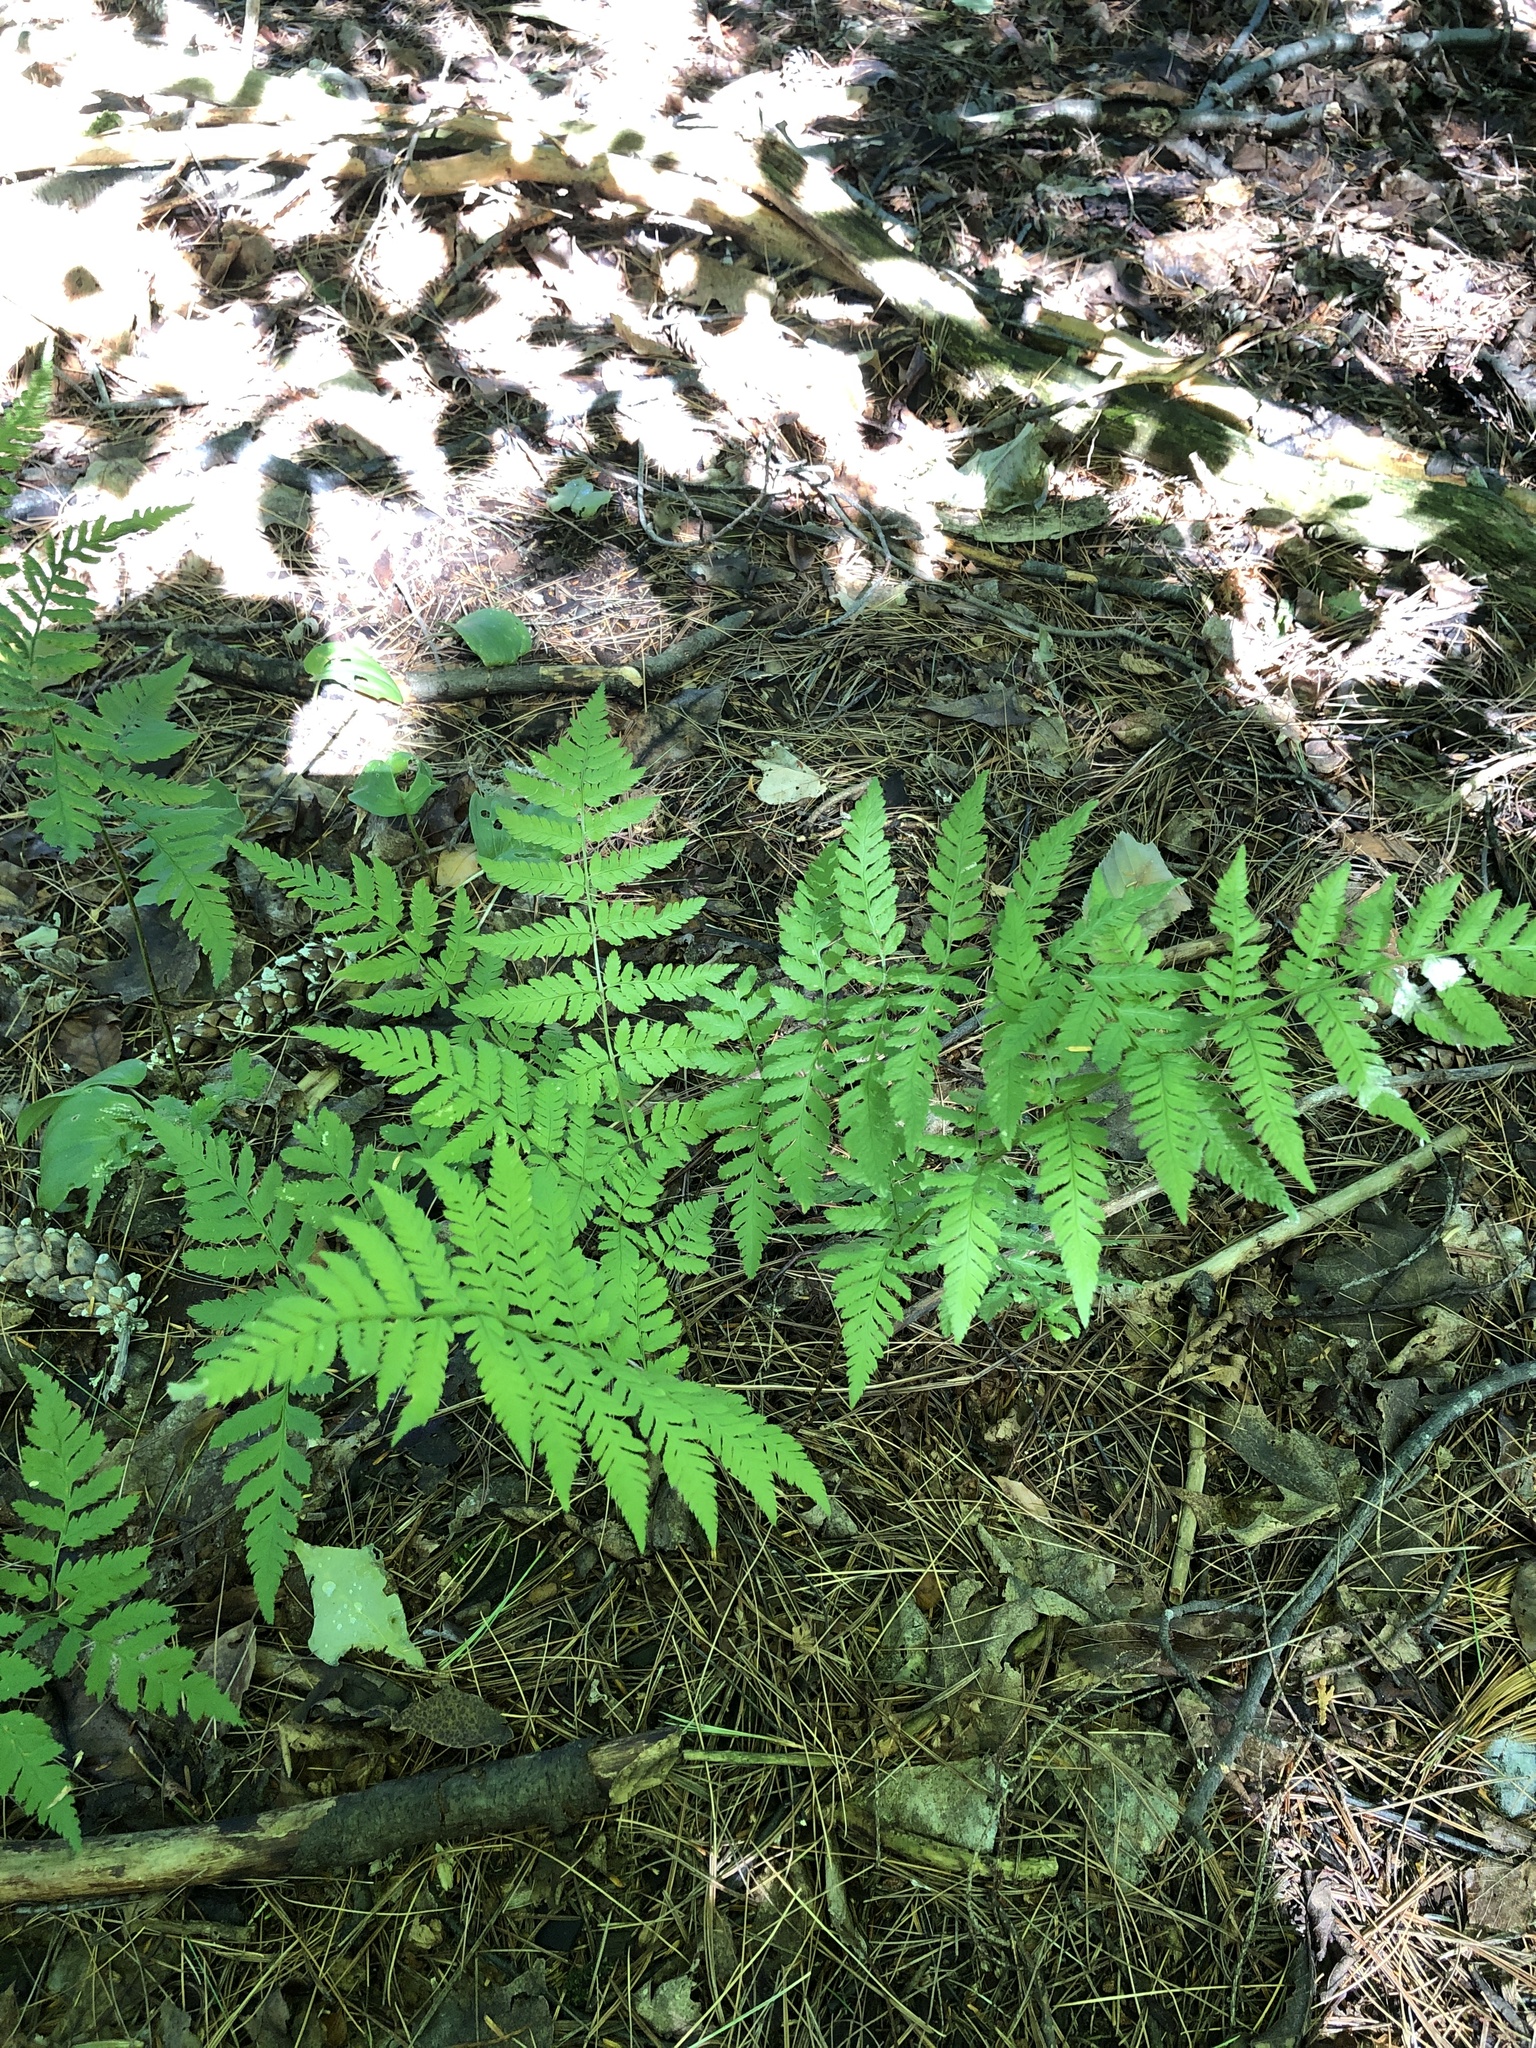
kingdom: Plantae
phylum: Tracheophyta
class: Polypodiopsida
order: Polypodiales
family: Dryopteridaceae
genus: Dryopteris
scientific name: Dryopteris carthusiana
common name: Narrow buckler-fern
